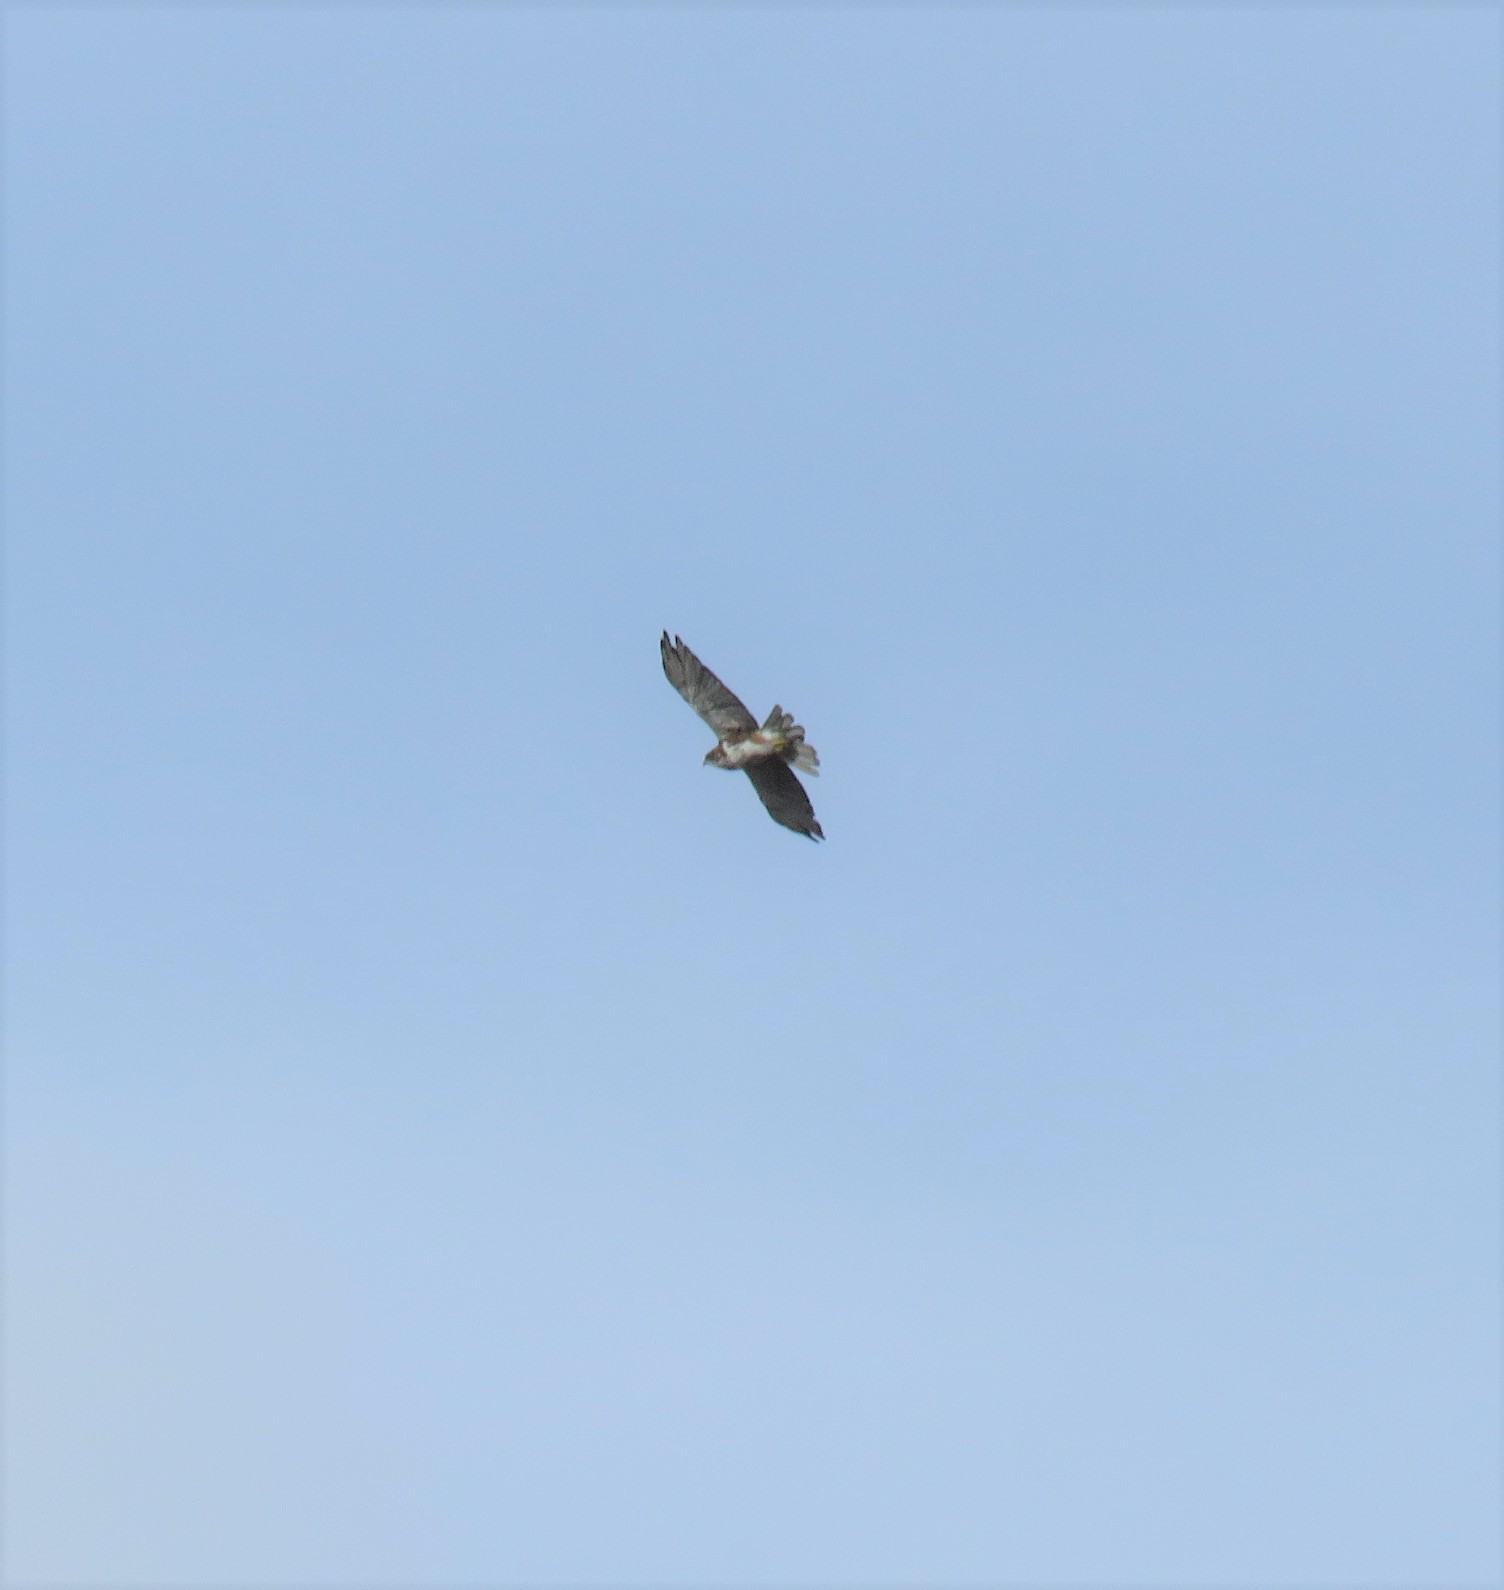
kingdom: Animalia
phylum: Chordata
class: Aves
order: Accipitriformes
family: Accipitridae
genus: Buteo
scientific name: Buteo albigula
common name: White-throated hawk
